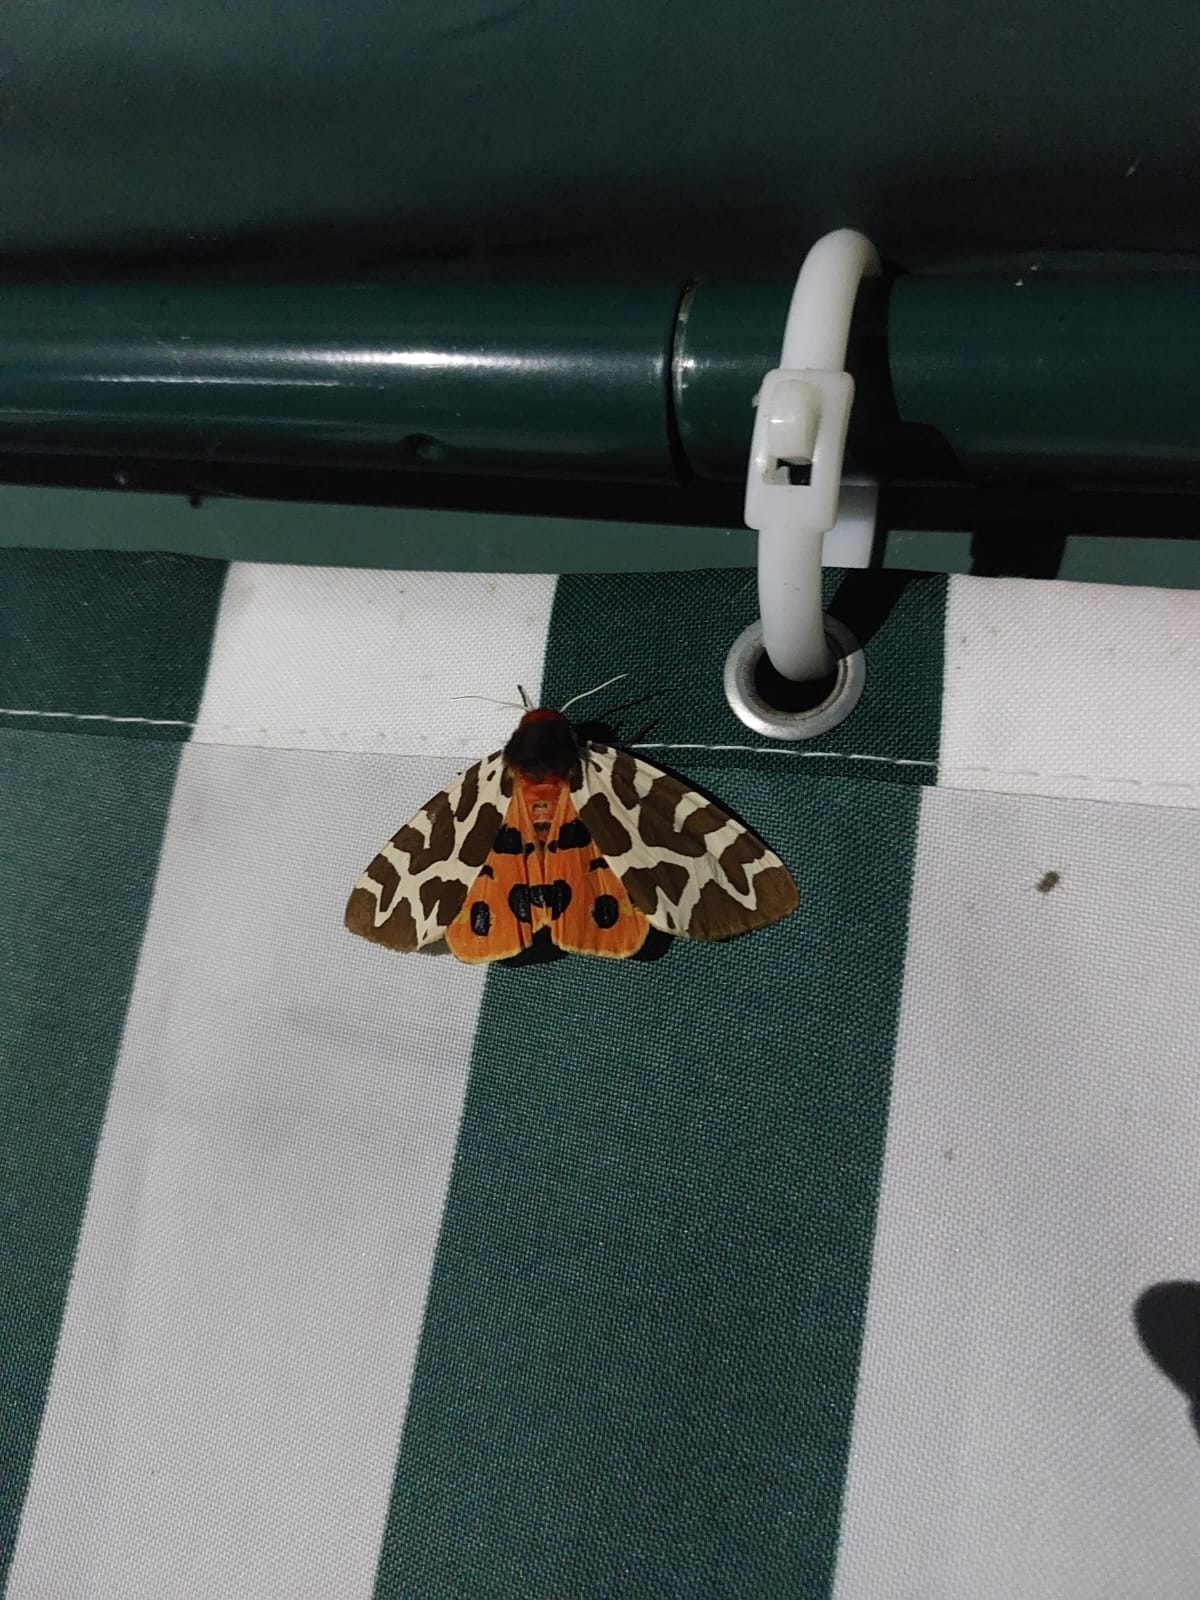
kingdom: Animalia
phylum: Arthropoda
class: Insecta
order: Lepidoptera
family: Erebidae
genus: Arctia
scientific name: Arctia caja
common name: Garden tiger
